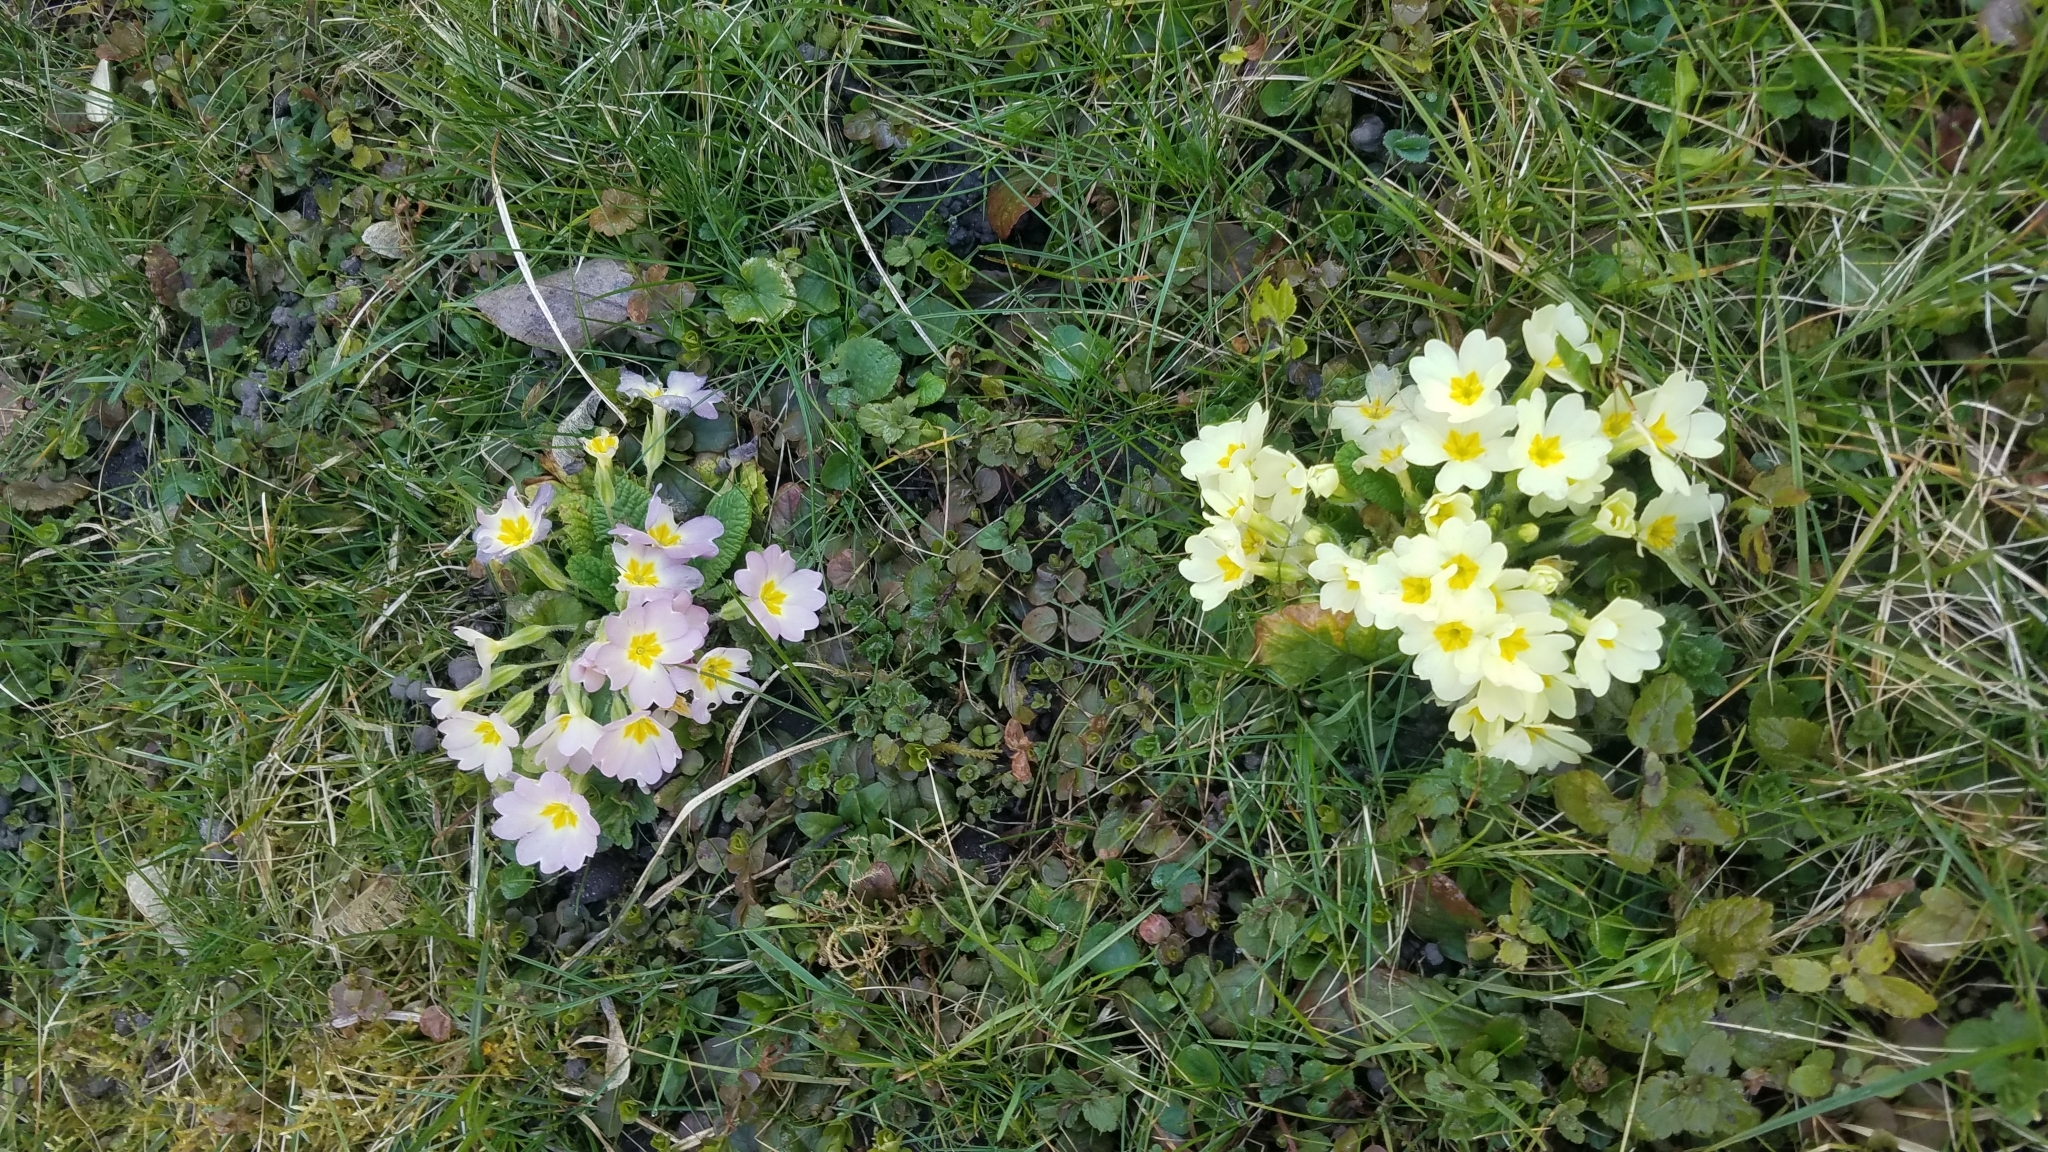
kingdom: Plantae
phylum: Tracheophyta
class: Magnoliopsida
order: Ericales
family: Primulaceae
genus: Primula
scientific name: Primula polyantha
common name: False oxlip
